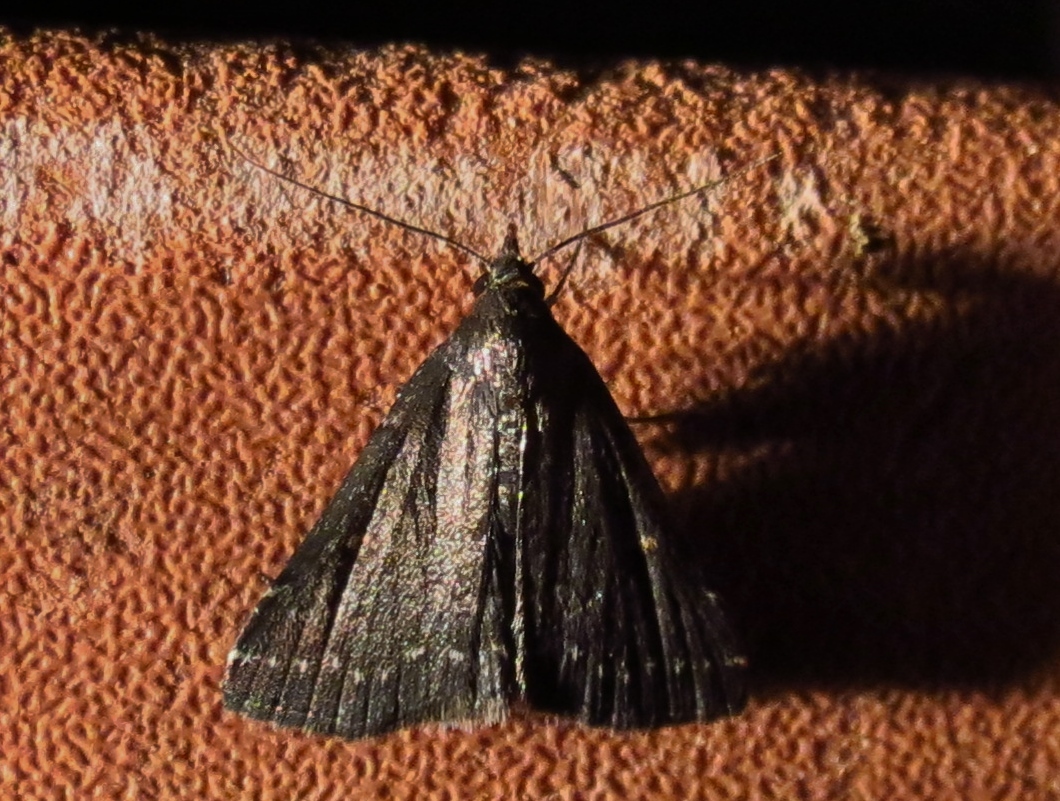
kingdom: Animalia
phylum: Arthropoda
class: Insecta
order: Lepidoptera
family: Erebidae
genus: Tetanolita
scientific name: Tetanolita mynesalis
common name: Smoky tetanolita moth
